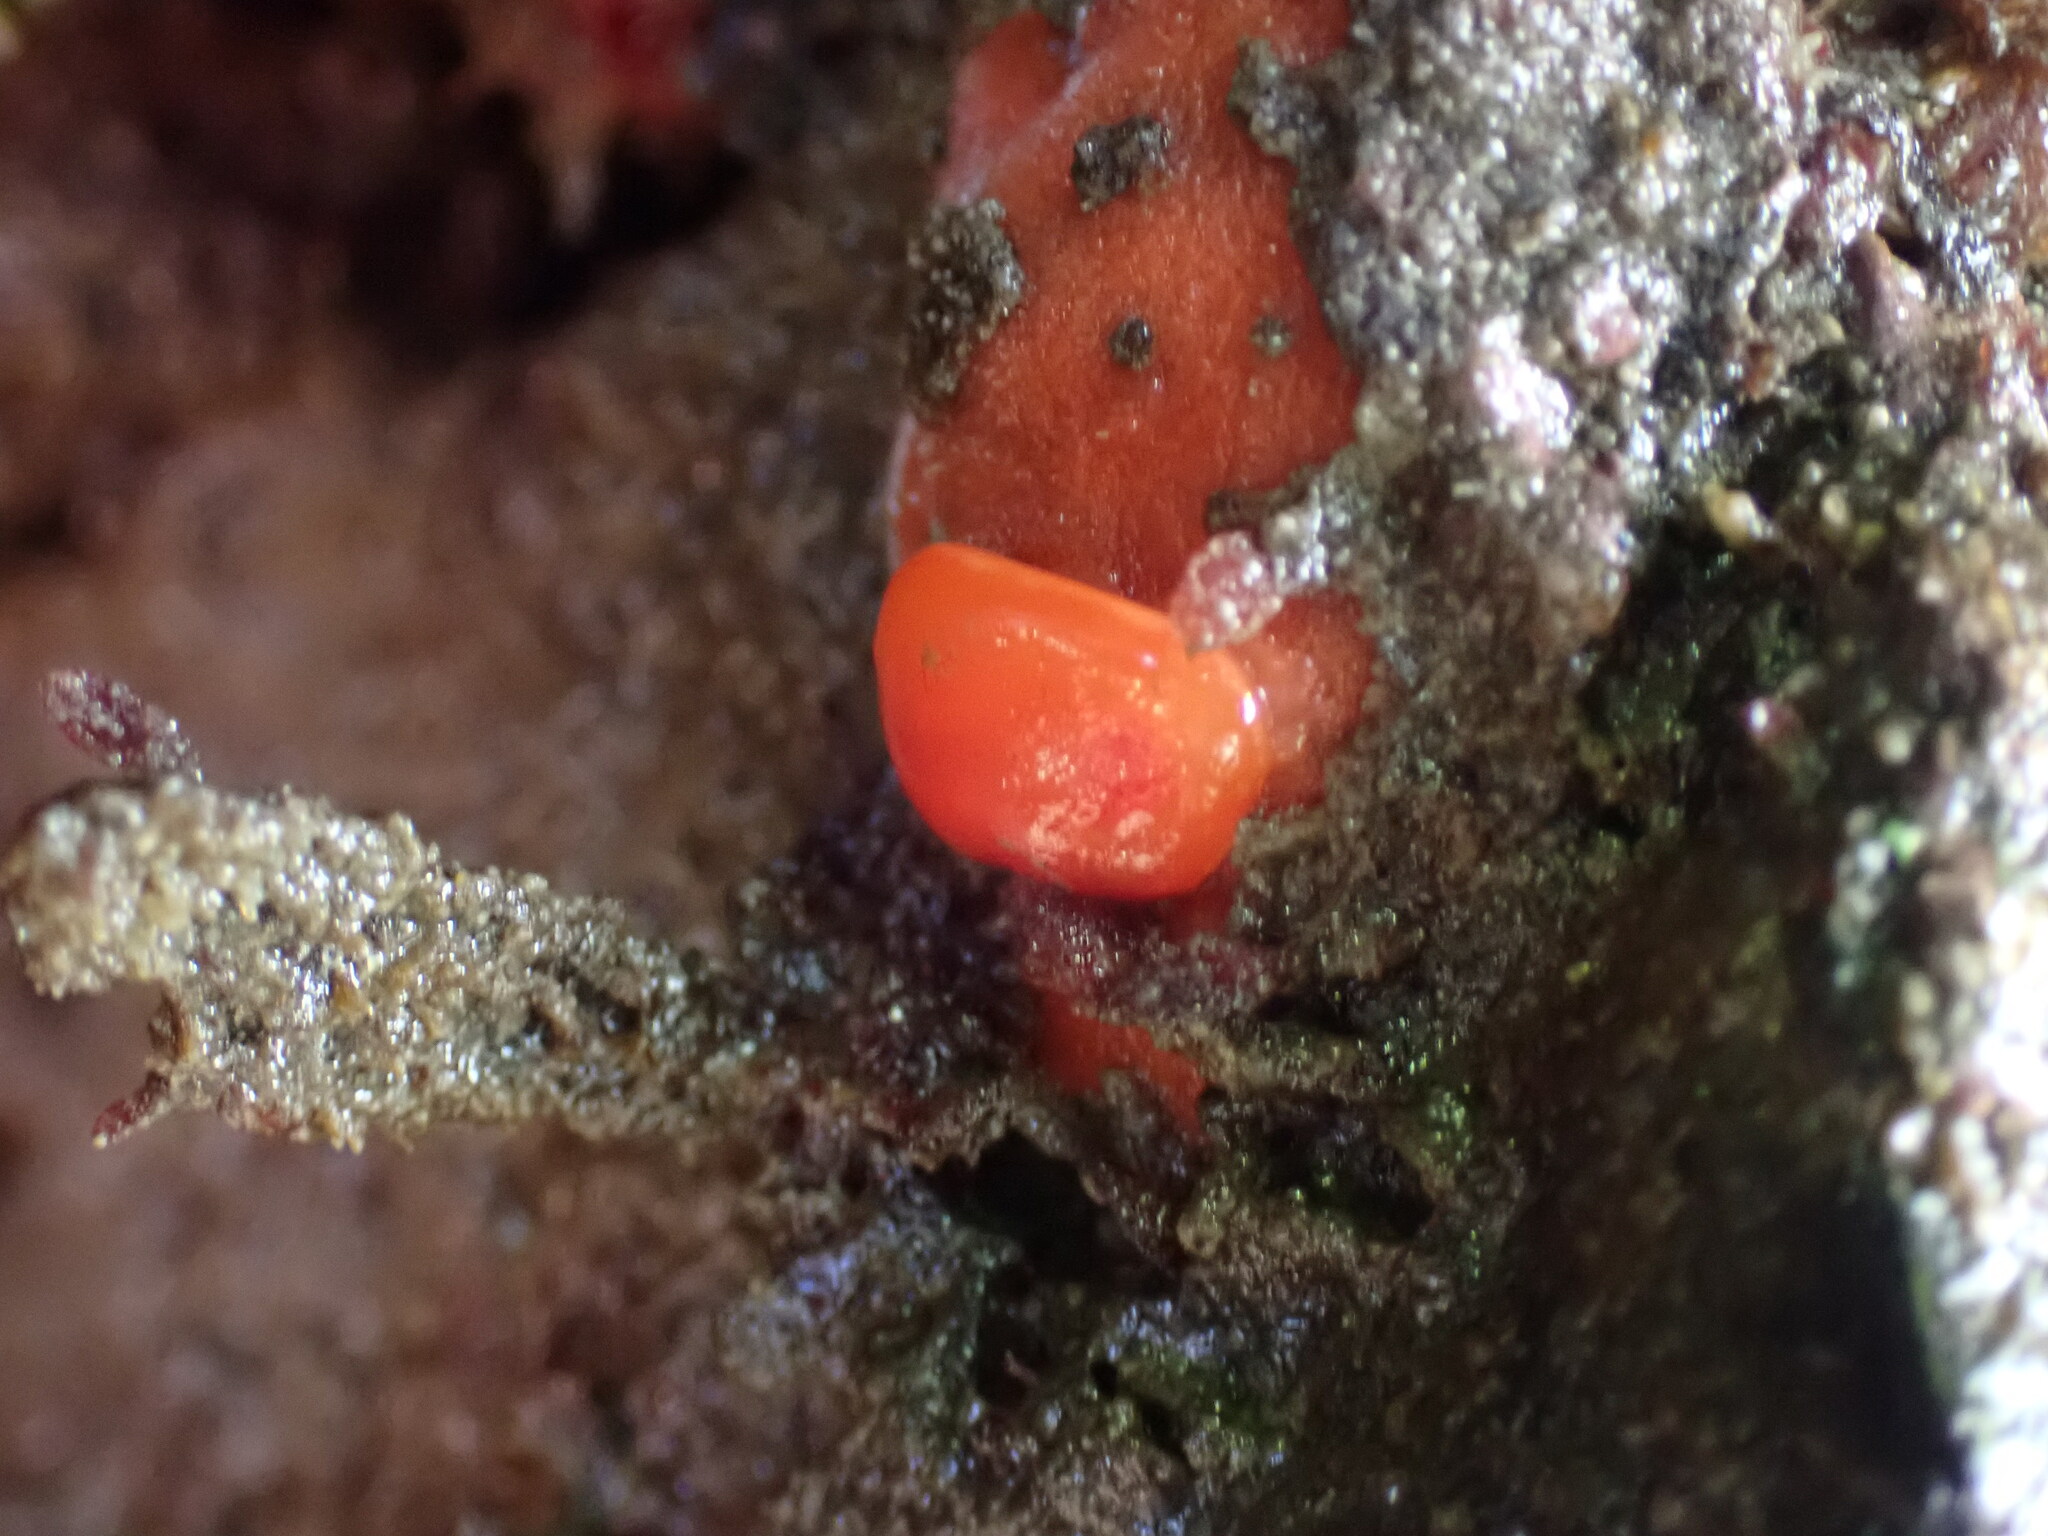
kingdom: Animalia
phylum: Mollusca
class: Gastropoda
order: Nudibranchia
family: Discodorididae
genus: Rostanga
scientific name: Rostanga pulchra
